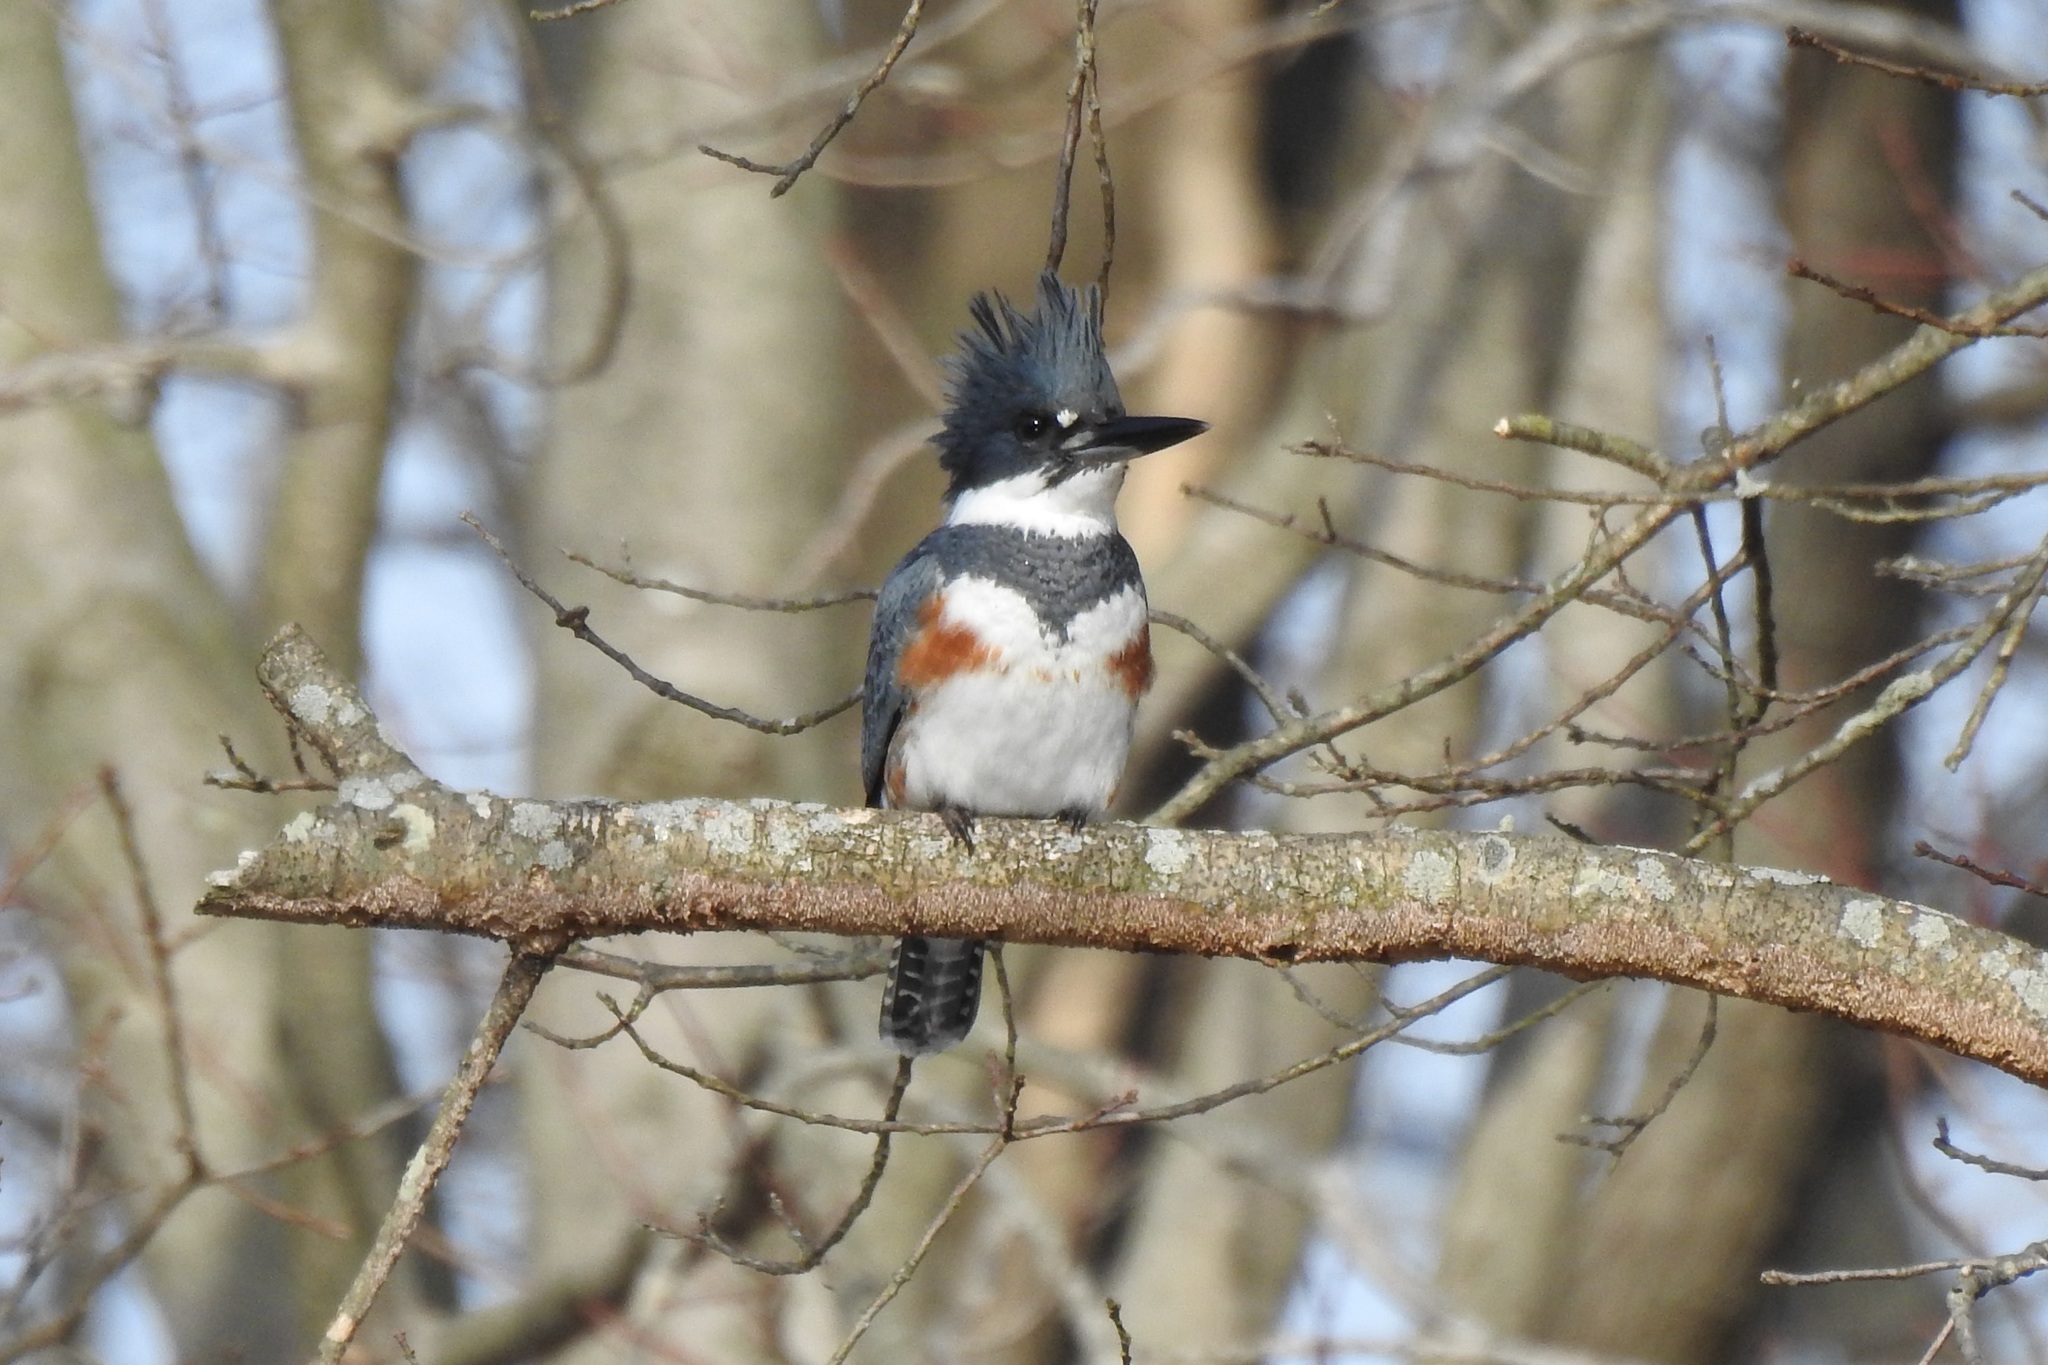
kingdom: Animalia
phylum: Chordata
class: Aves
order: Coraciiformes
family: Alcedinidae
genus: Megaceryle
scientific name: Megaceryle alcyon
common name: Belted kingfisher
